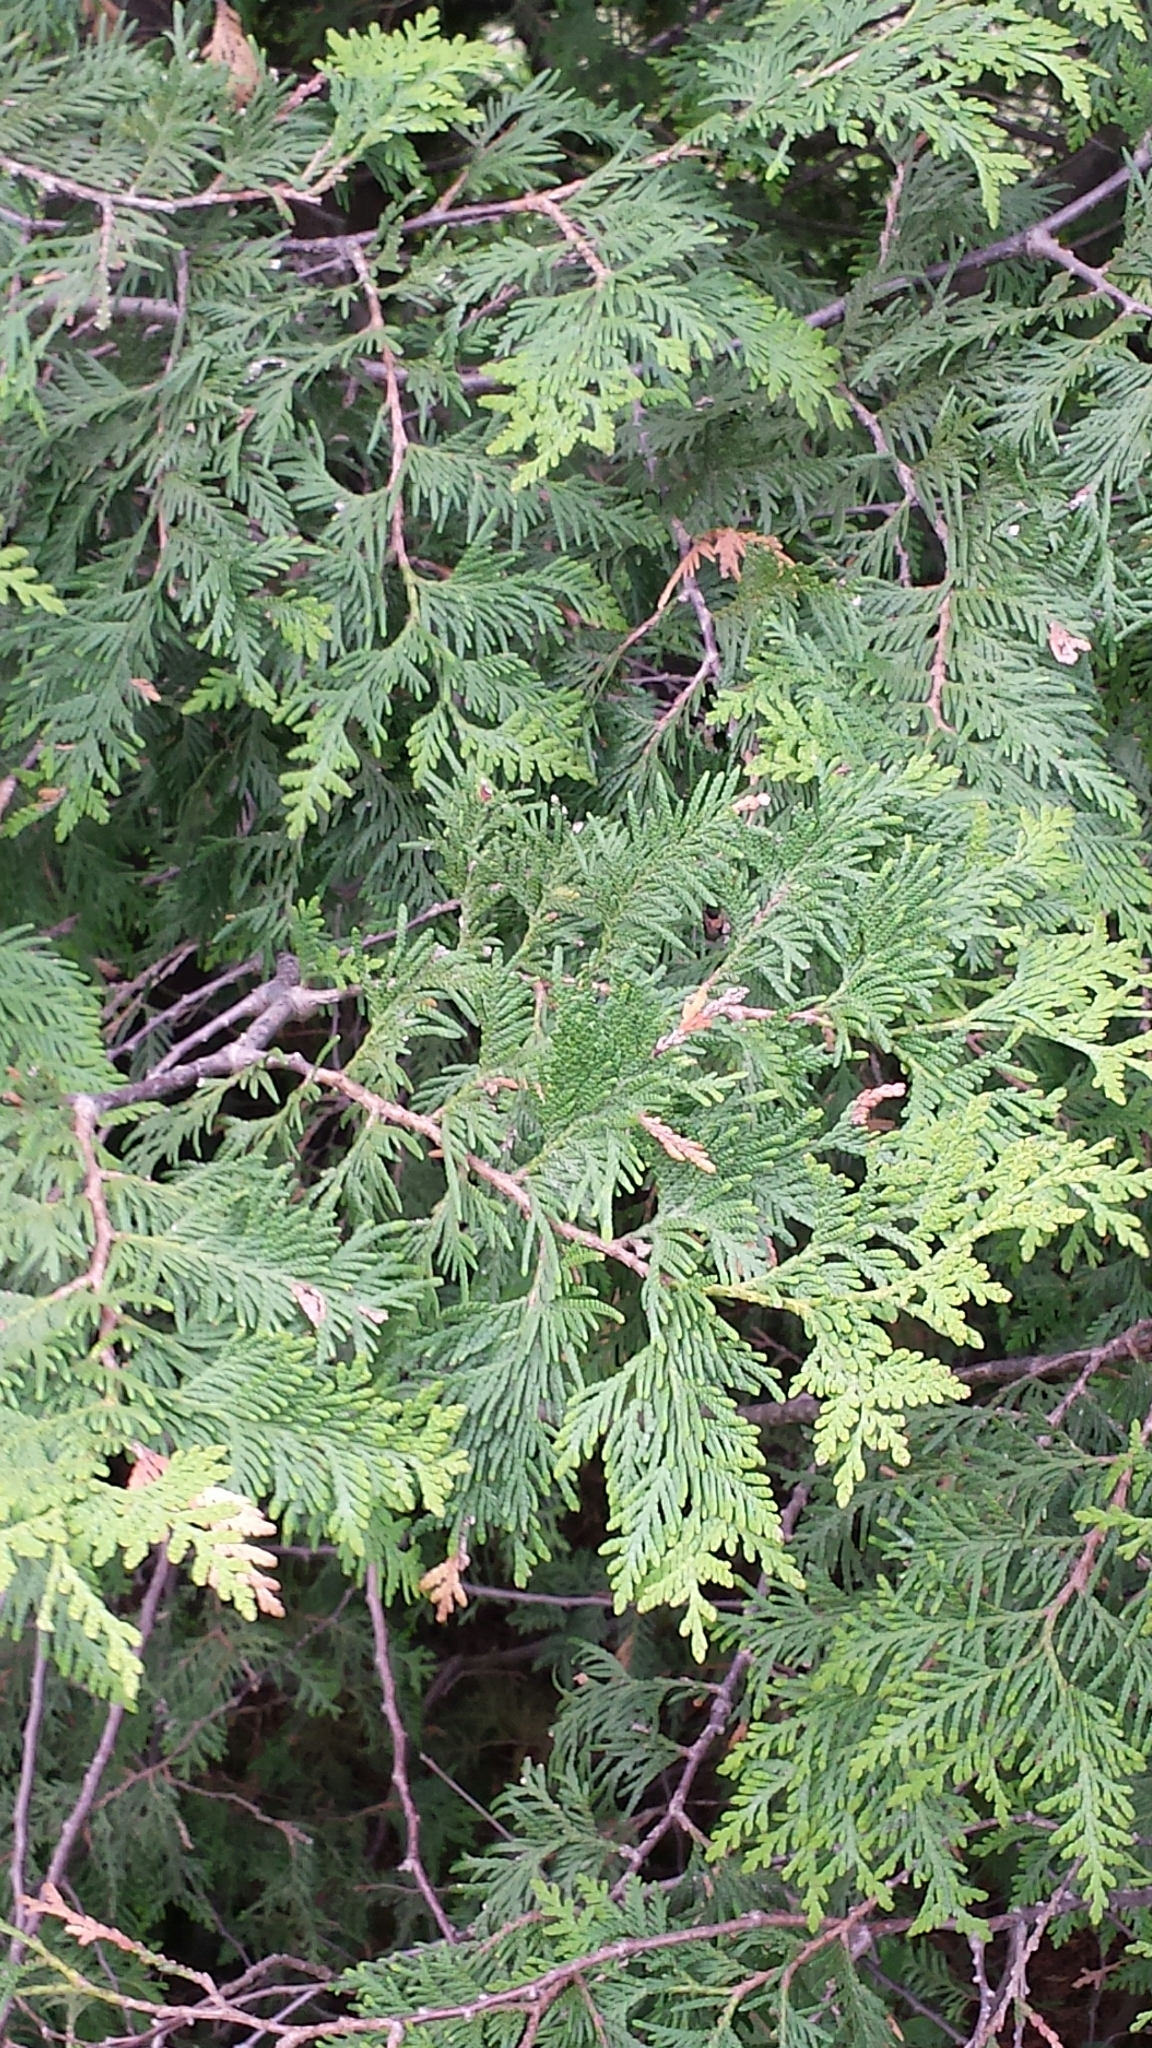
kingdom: Plantae
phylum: Tracheophyta
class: Pinopsida
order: Pinales
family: Cupressaceae
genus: Thuja
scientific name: Thuja occidentalis
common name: Northern white-cedar
